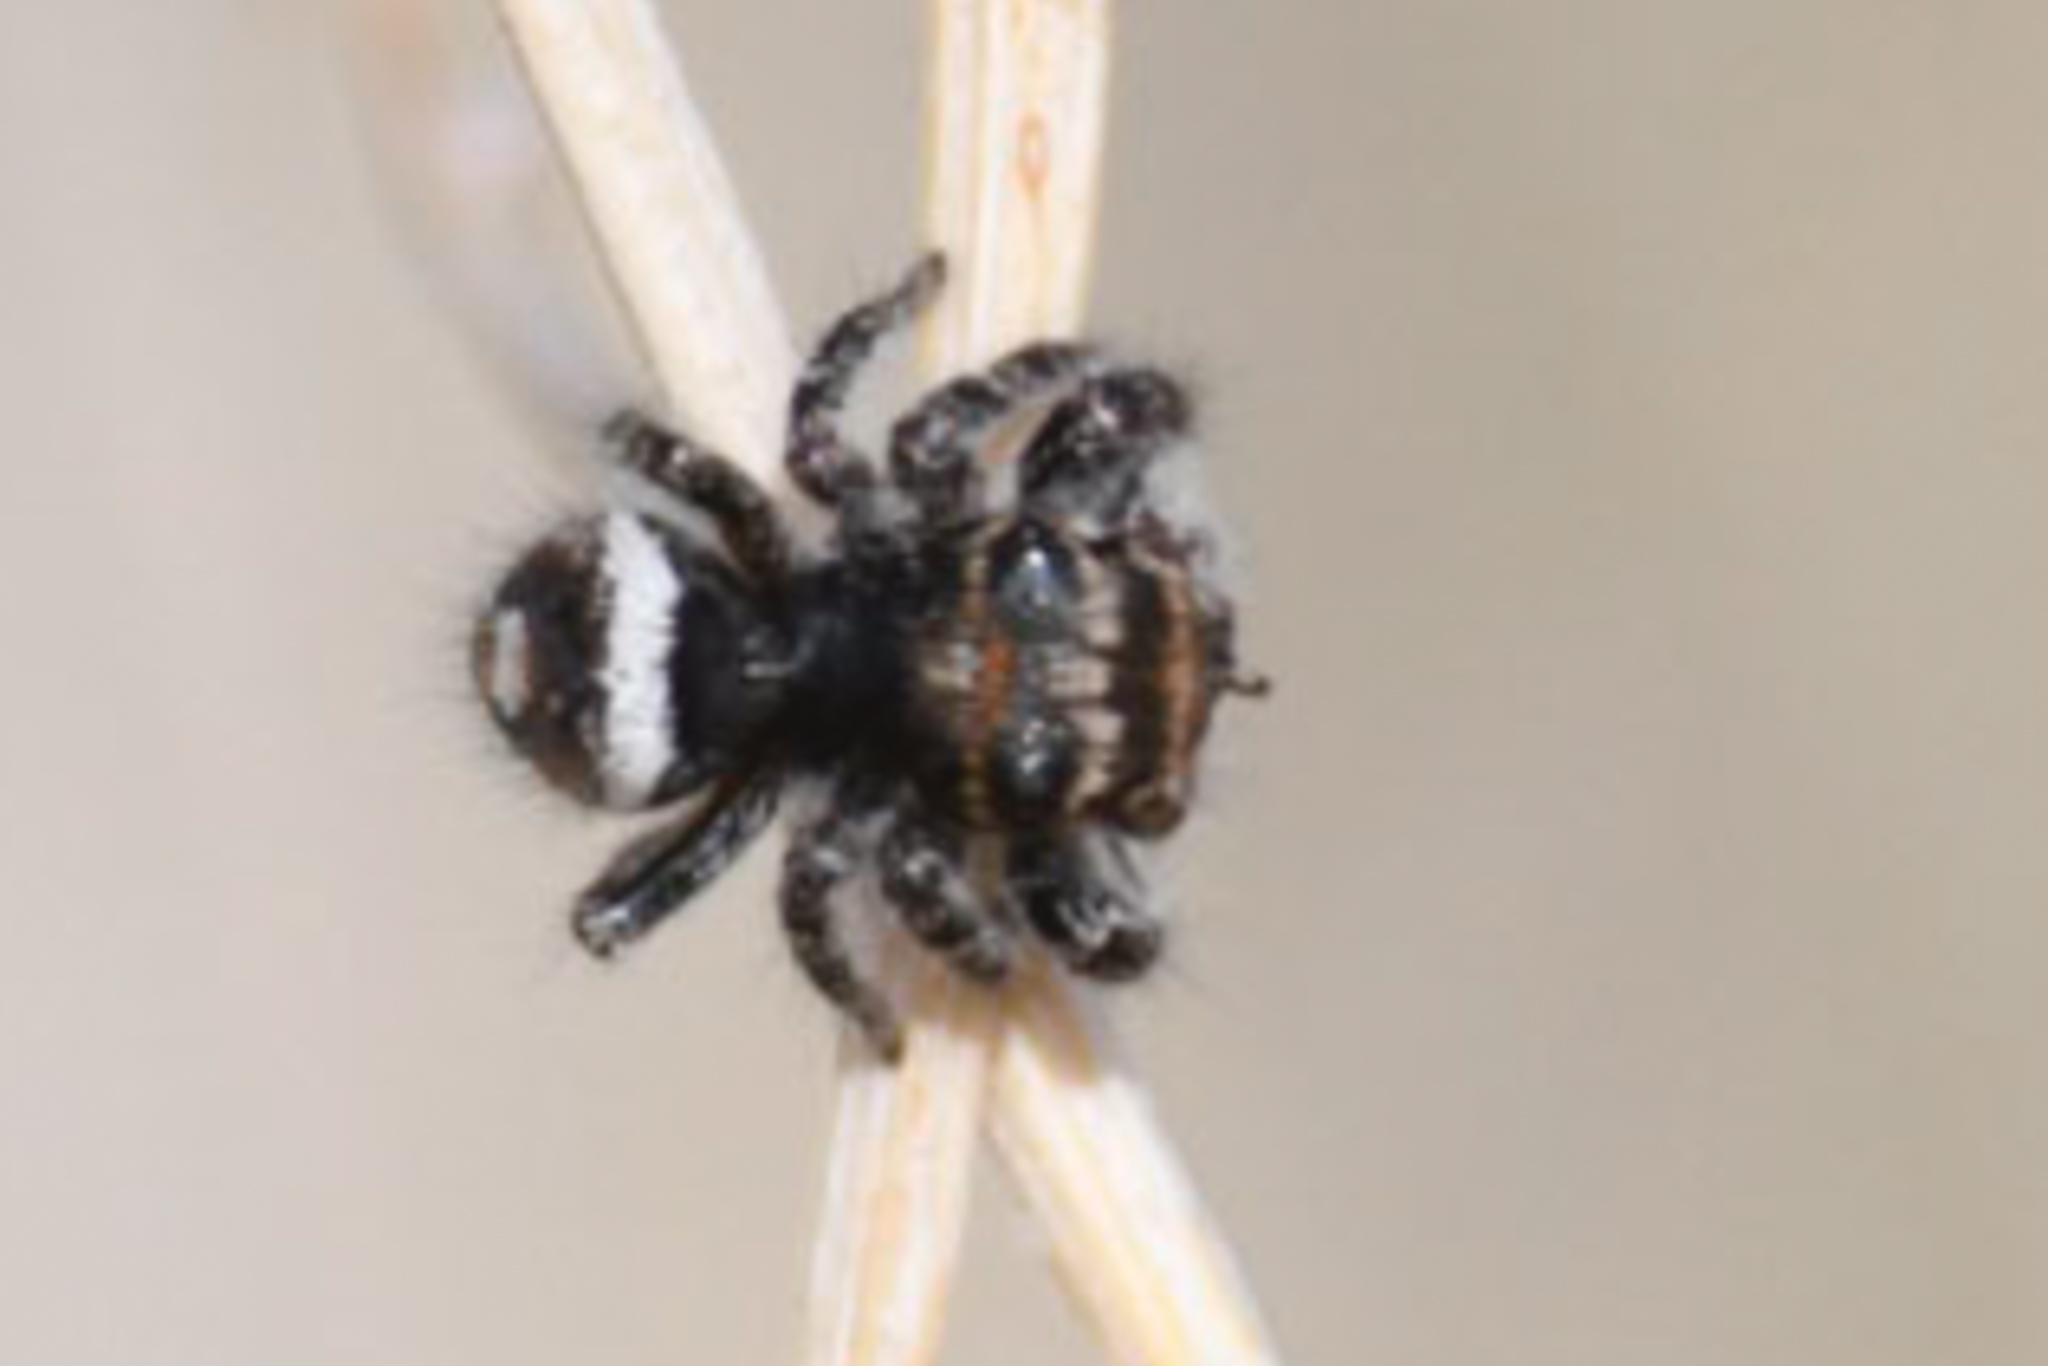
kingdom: Animalia
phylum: Arthropoda
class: Arachnida
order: Araneae
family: Salticidae
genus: Phidippus
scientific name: Phidippus comatus
